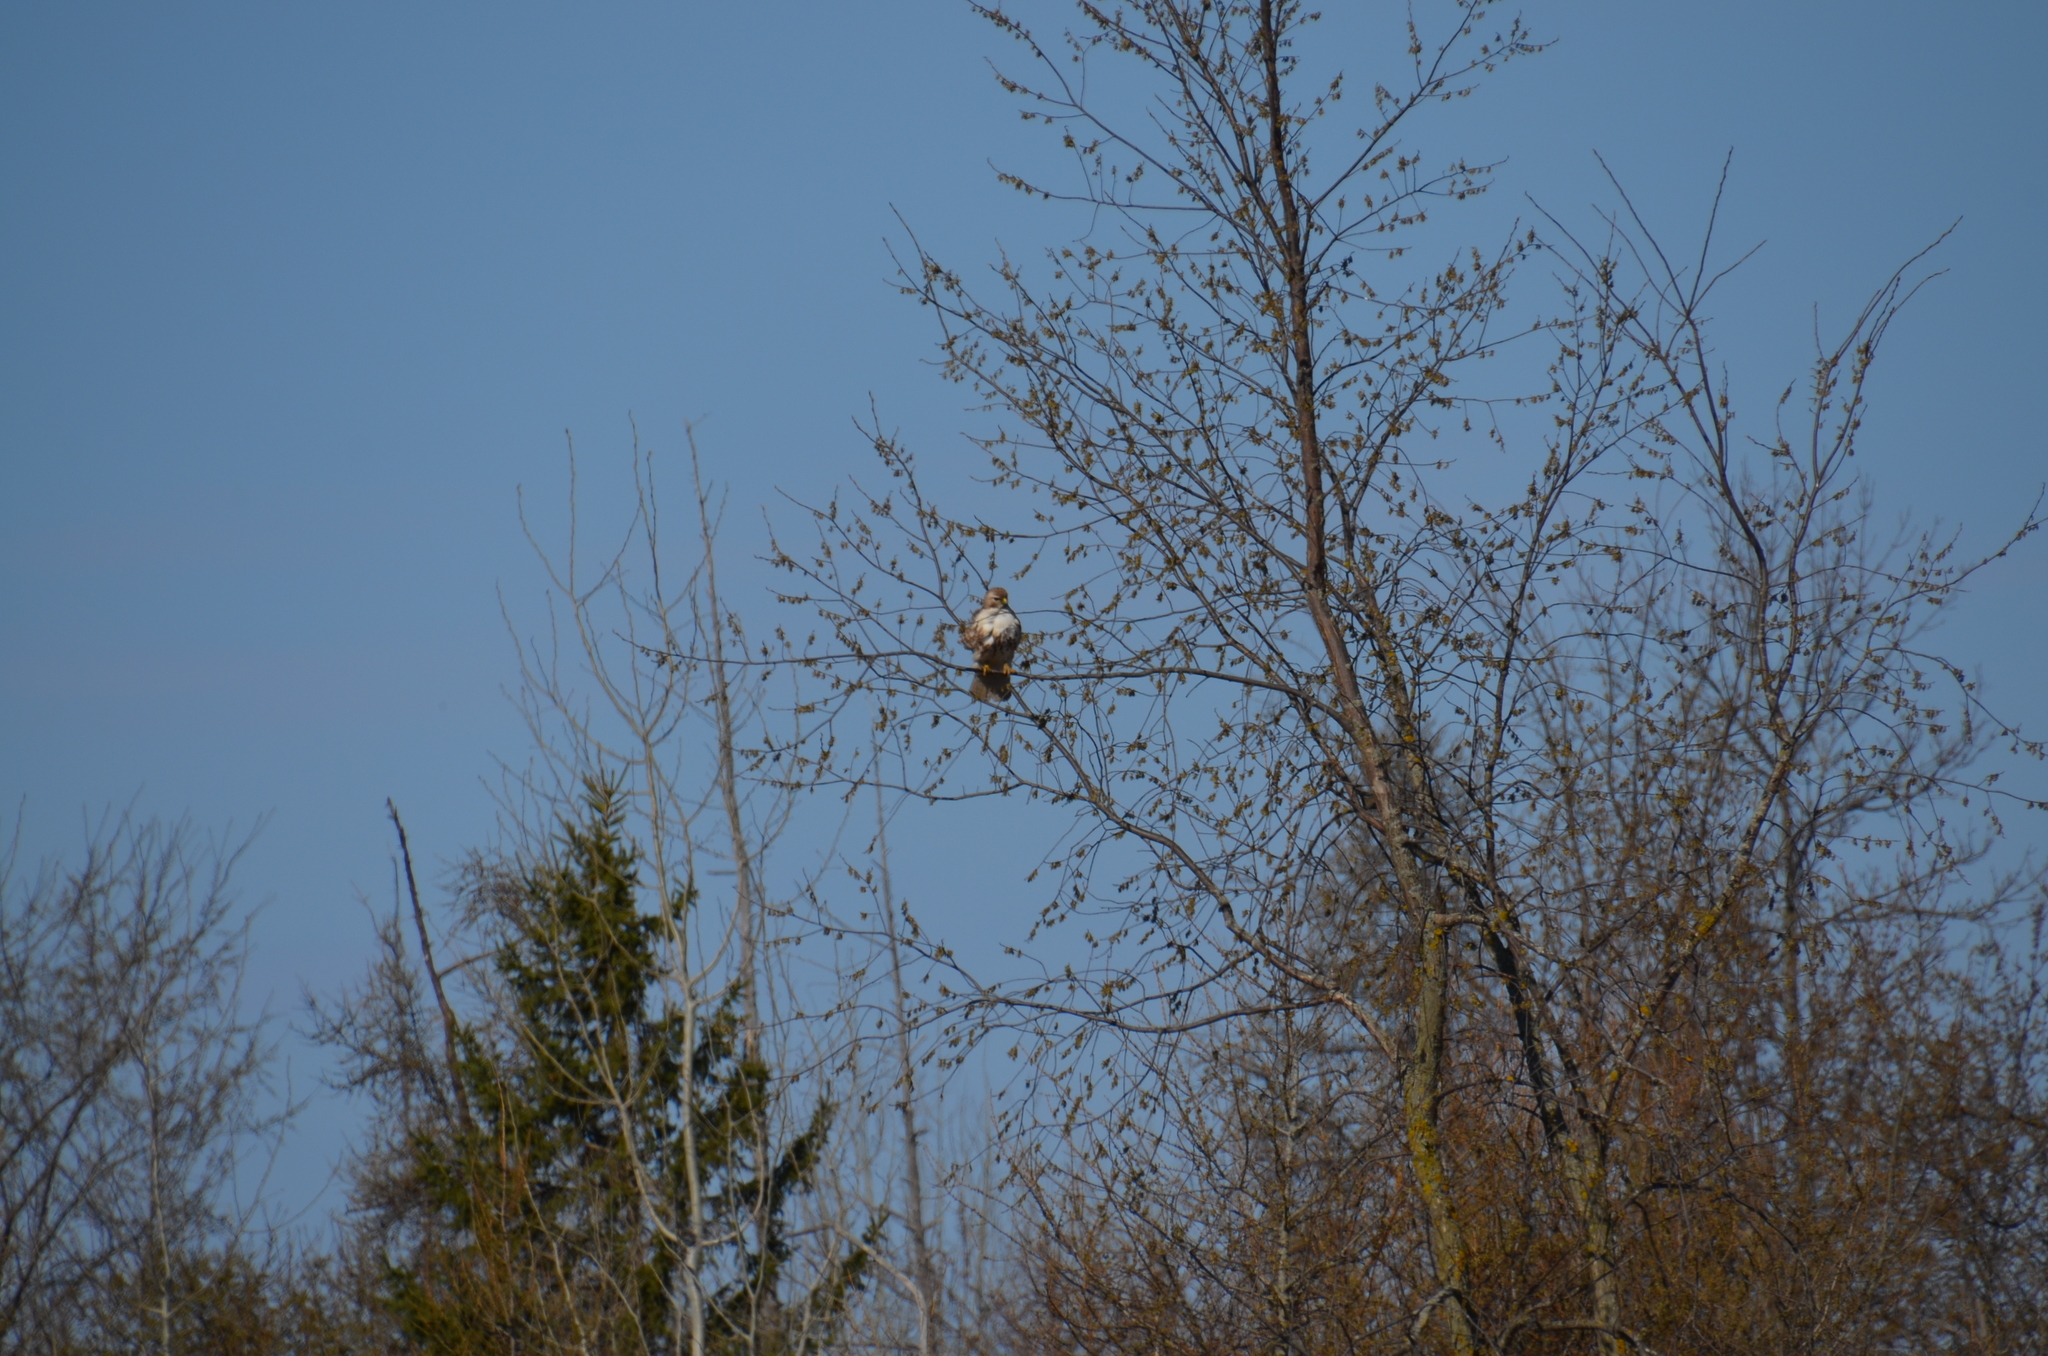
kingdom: Animalia
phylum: Chordata
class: Aves
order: Accipitriformes
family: Accipitridae
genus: Buteo
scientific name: Buteo jamaicensis
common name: Red-tailed hawk
